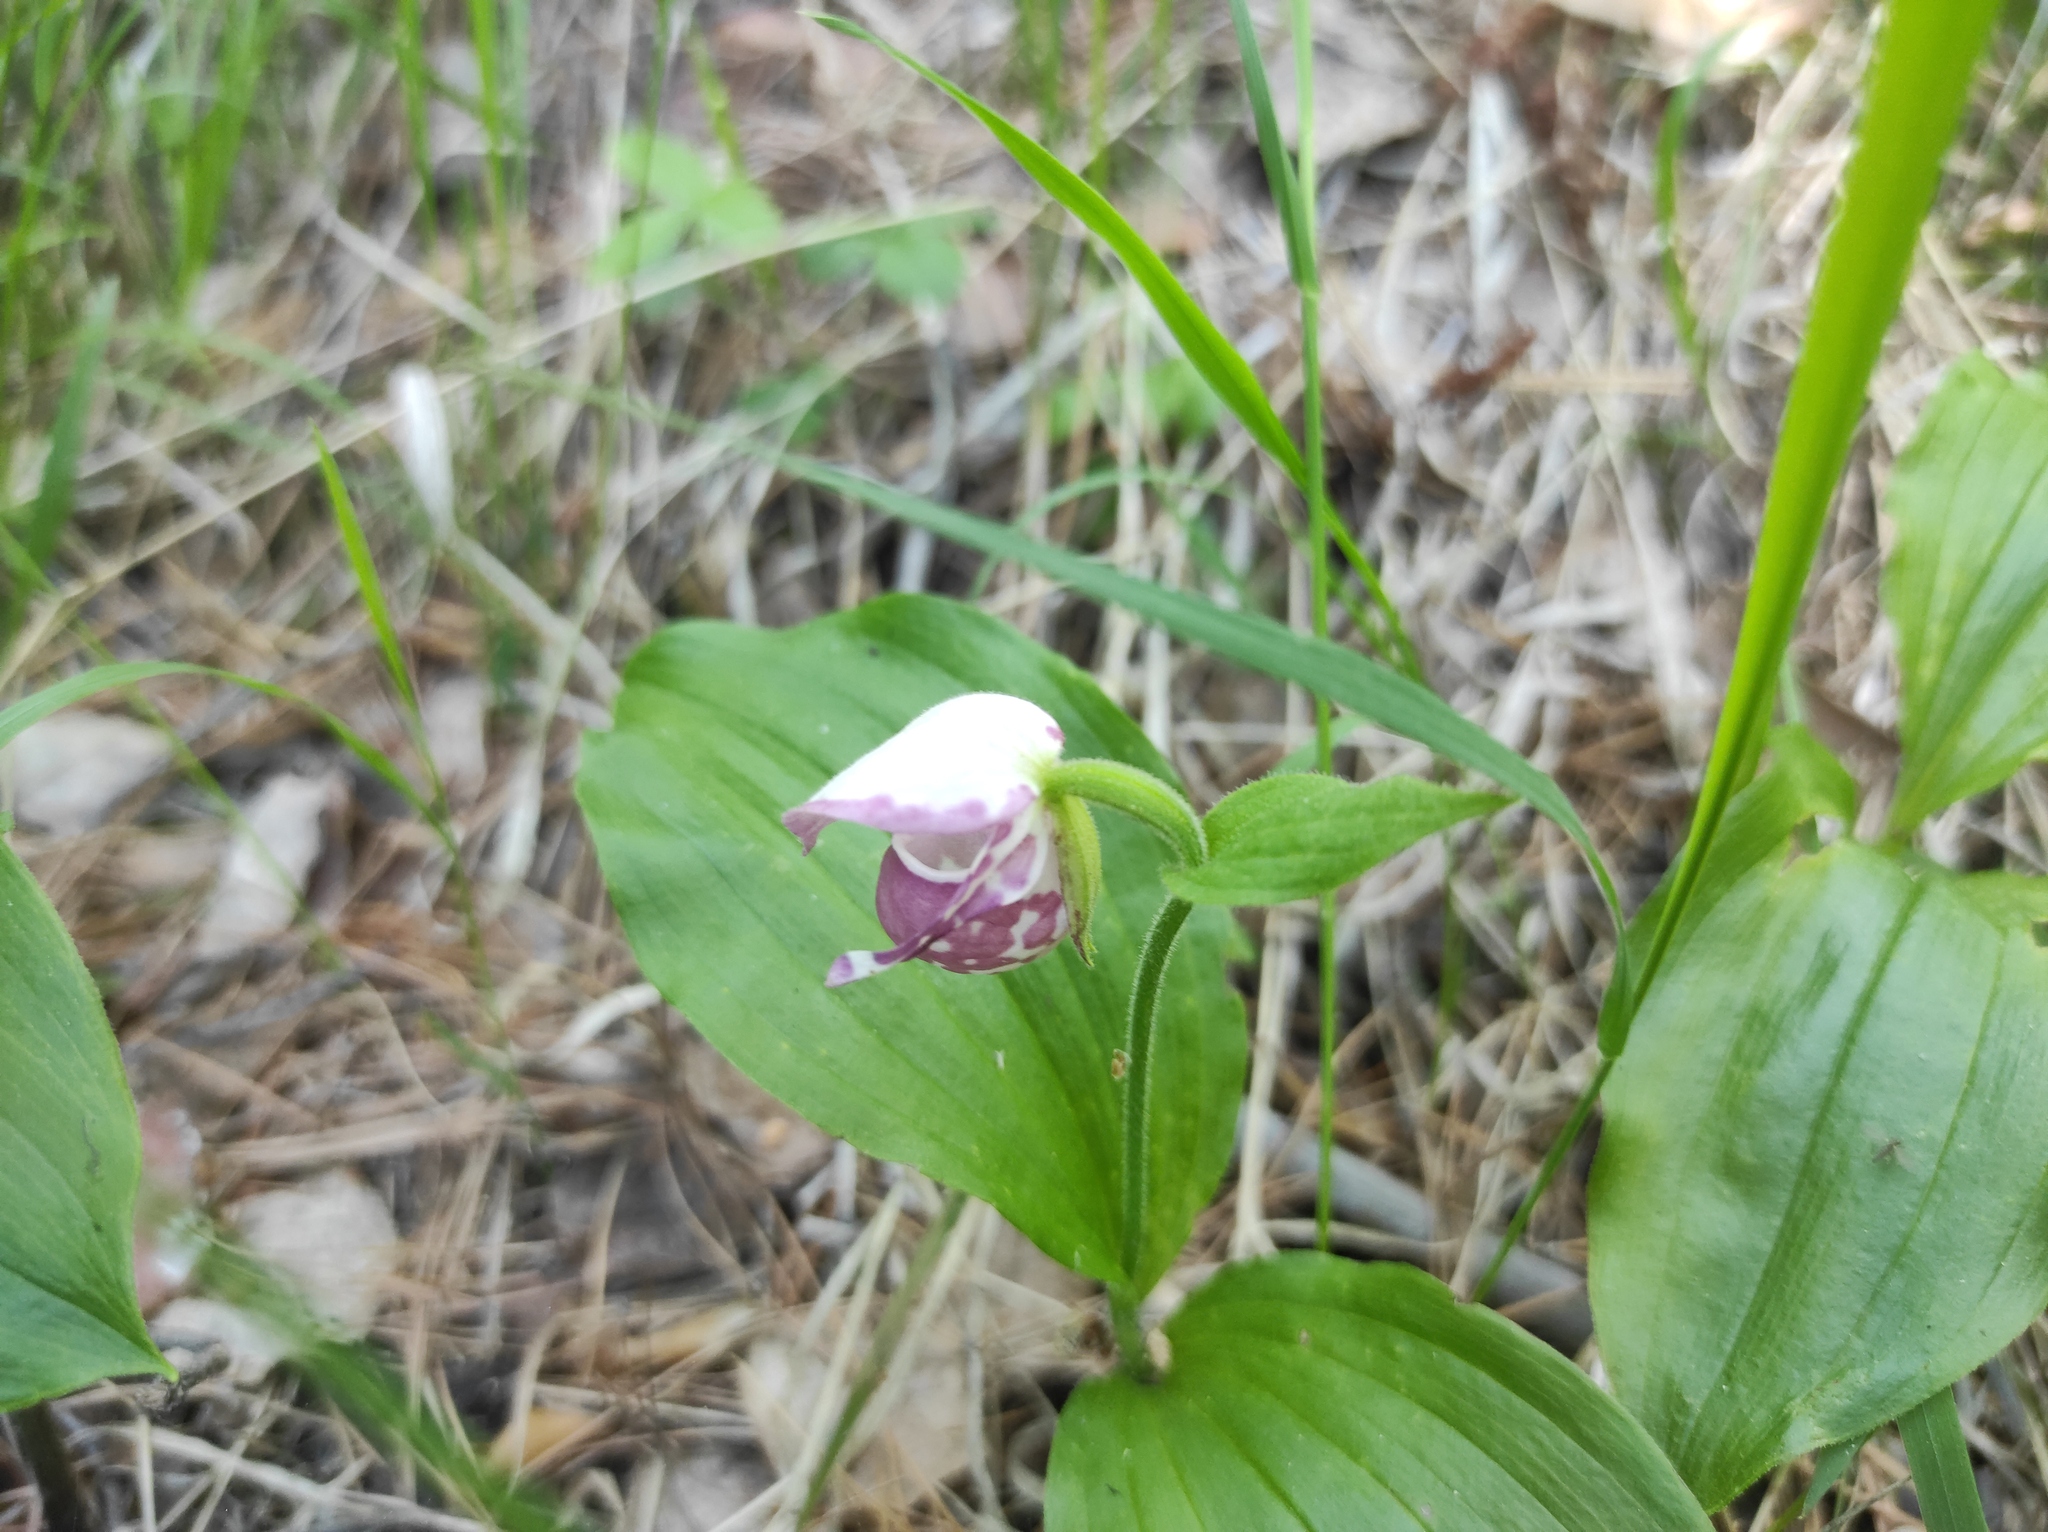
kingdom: Plantae
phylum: Tracheophyta
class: Liliopsida
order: Asparagales
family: Orchidaceae
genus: Cypripedium
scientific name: Cypripedium guttatum
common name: Pink lady slipper
